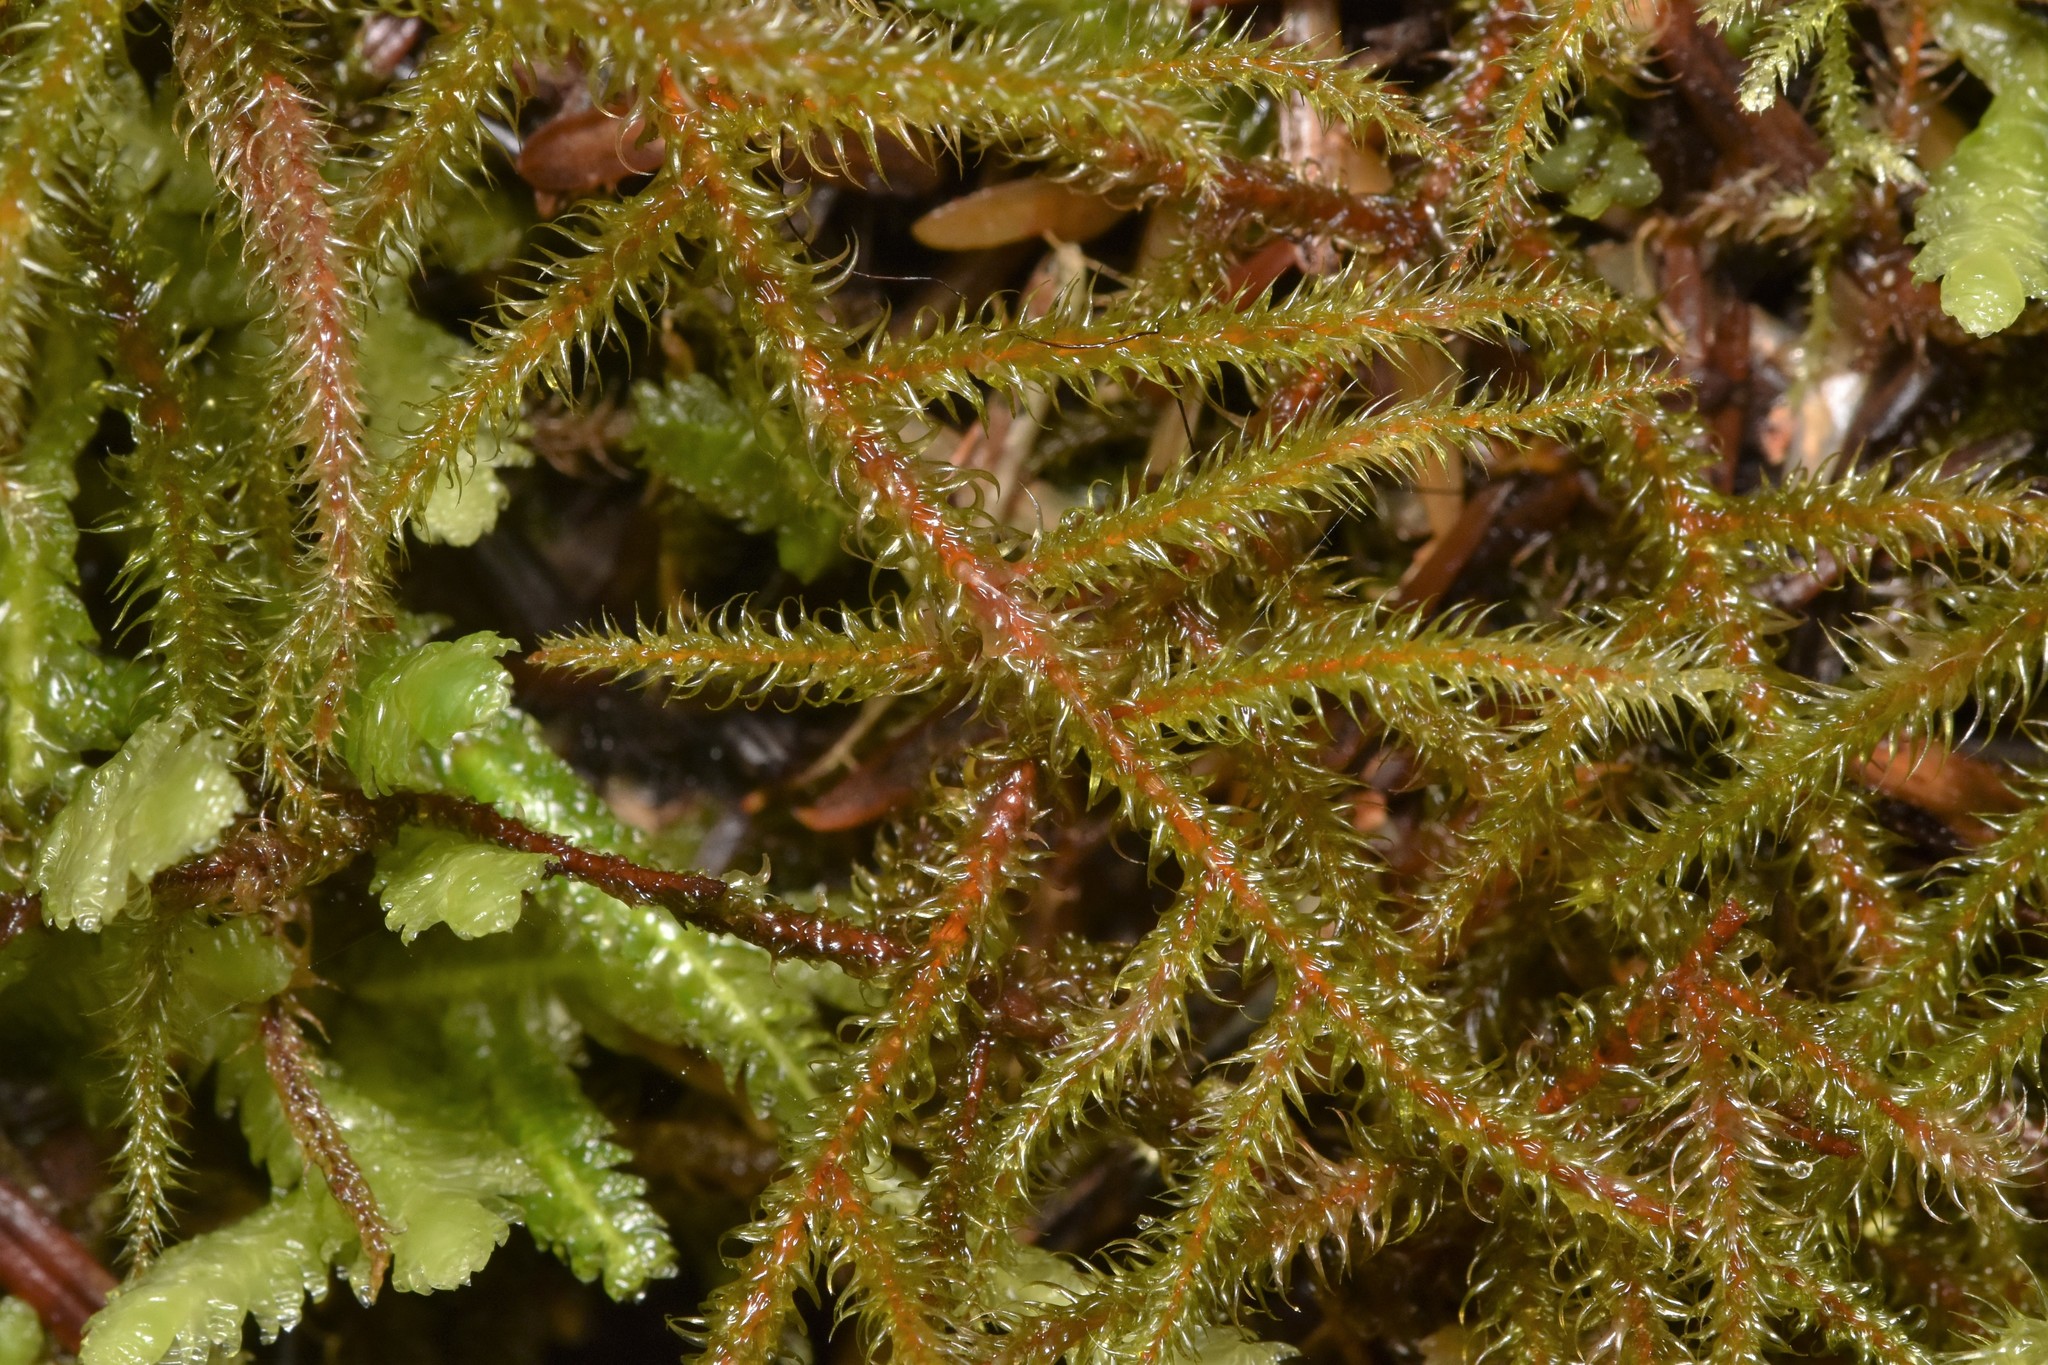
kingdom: Plantae
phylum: Bryophyta
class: Bryopsida
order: Hypnales
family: Hylocomiaceae
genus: Rhytidiadelphus
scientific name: Rhytidiadelphus loreus
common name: Lanky moss
